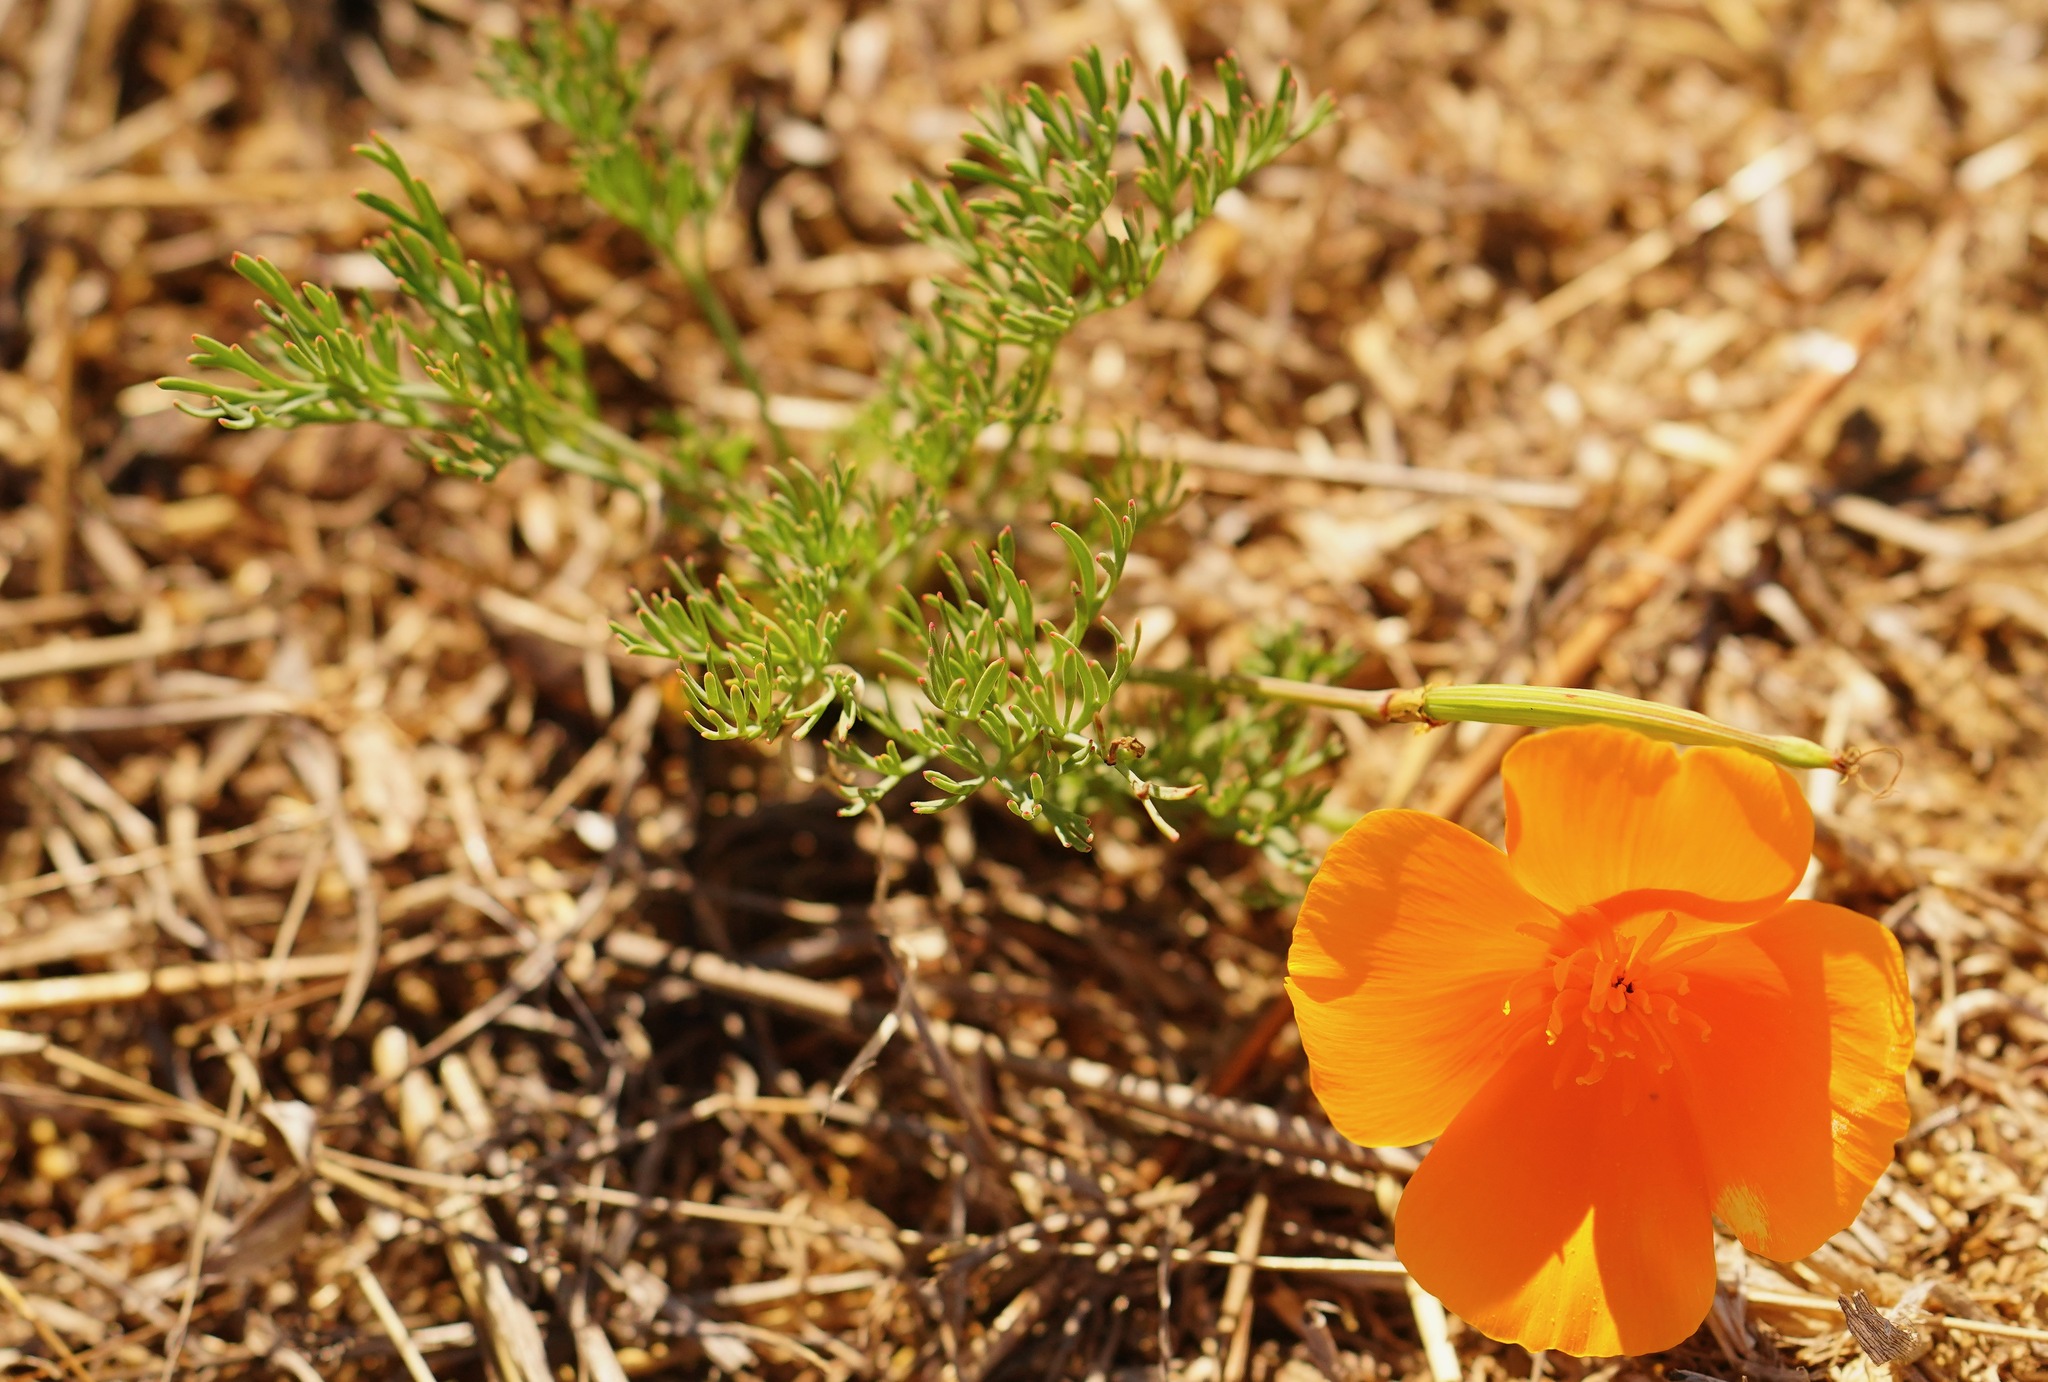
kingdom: Plantae
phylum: Tracheophyta
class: Magnoliopsida
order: Ranunculales
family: Papaveraceae
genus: Eschscholzia
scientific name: Eschscholzia californica
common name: California poppy
